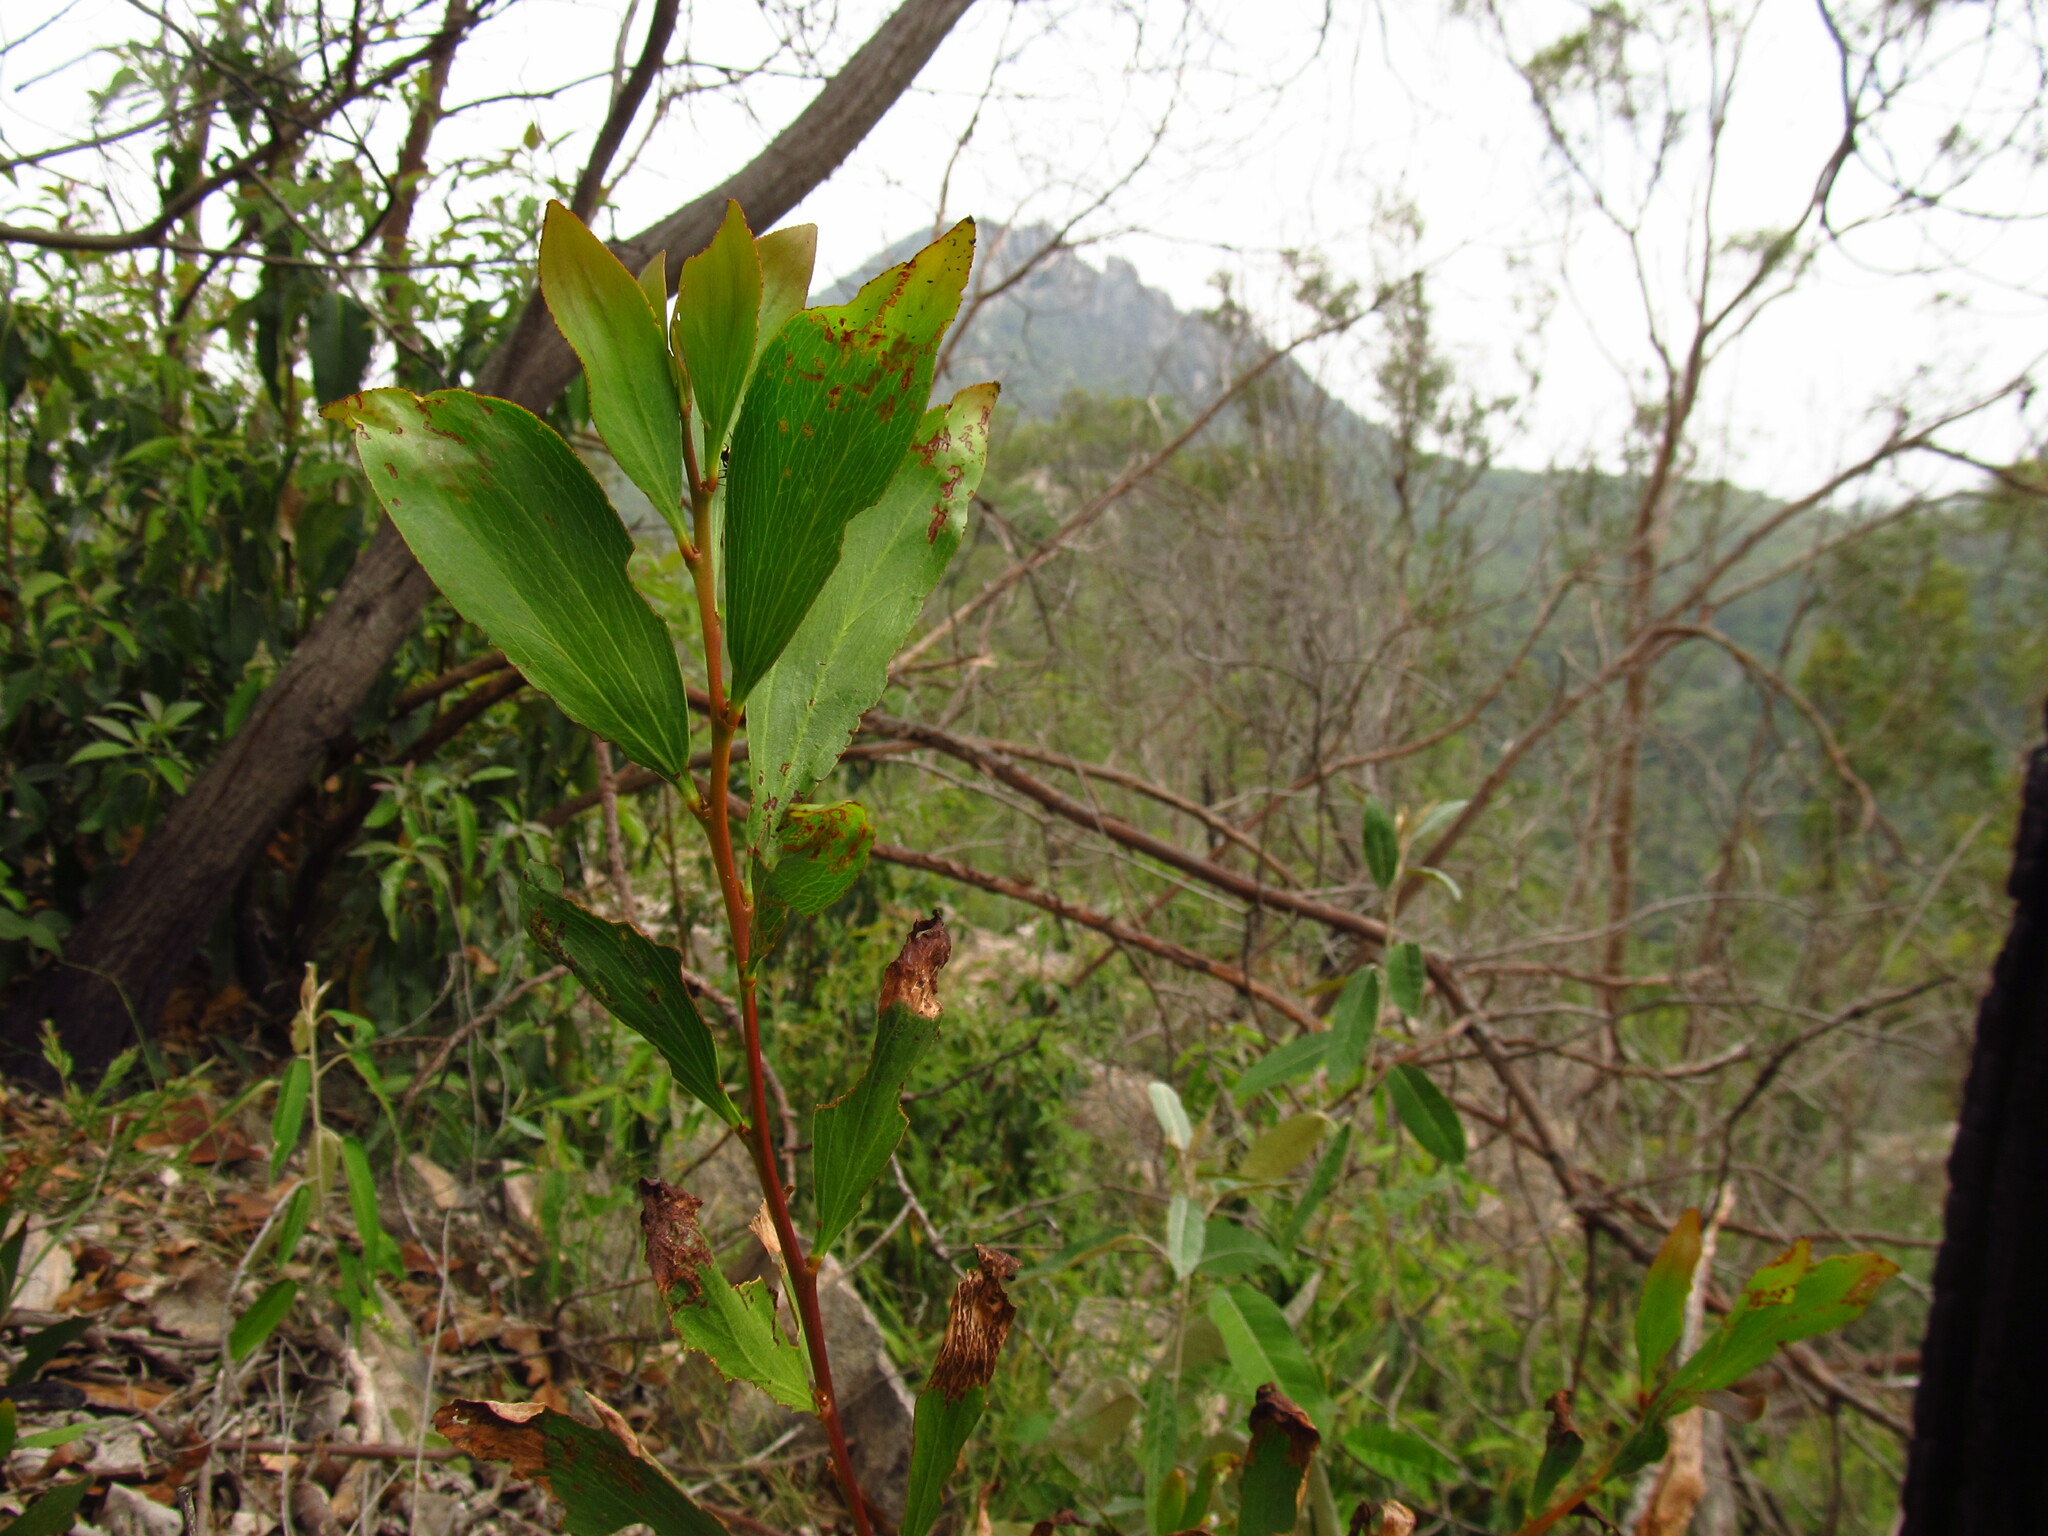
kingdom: Plantae
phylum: Tracheophyta
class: Magnoliopsida
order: Fabales
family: Fabaceae
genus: Acacia
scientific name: Acacia obtusifolia
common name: Stiff-leaf wattle
